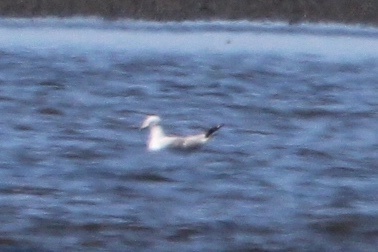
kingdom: Animalia
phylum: Chordata
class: Aves
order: Charadriiformes
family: Laridae
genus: Larus
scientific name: Larus delawarensis
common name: Ring-billed gull
